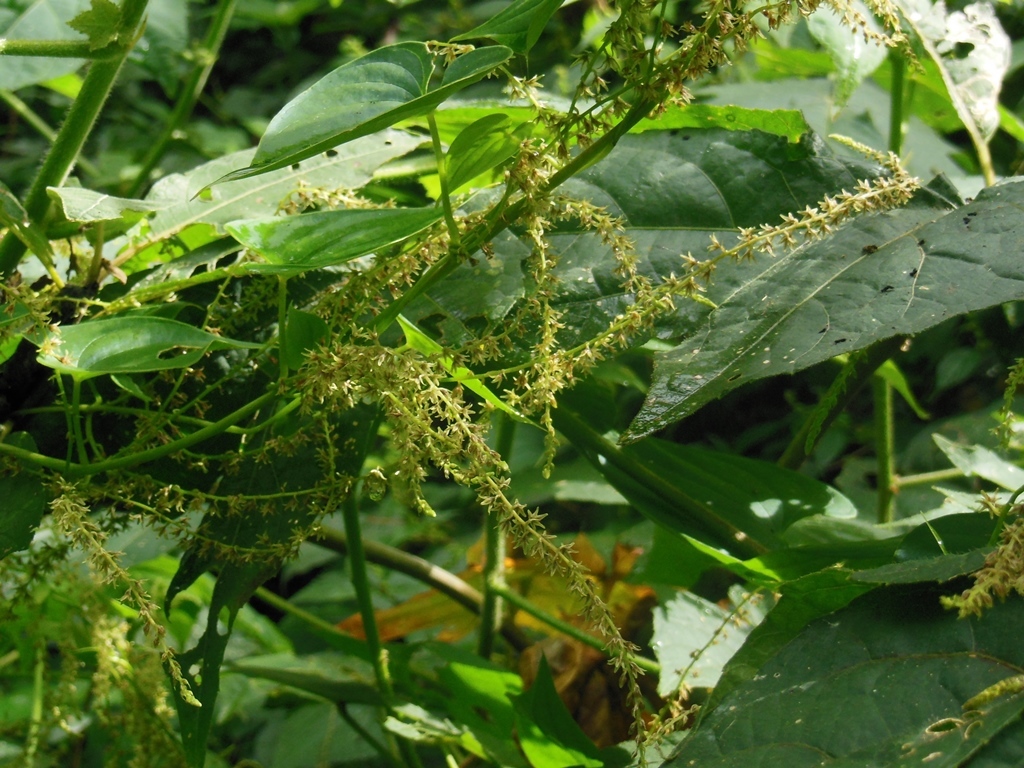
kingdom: Plantae
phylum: Tracheophyta
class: Liliopsida
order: Dioscoreales
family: Dioscoreaceae
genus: Dioscorea
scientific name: Dioscorea gomez-pompae
